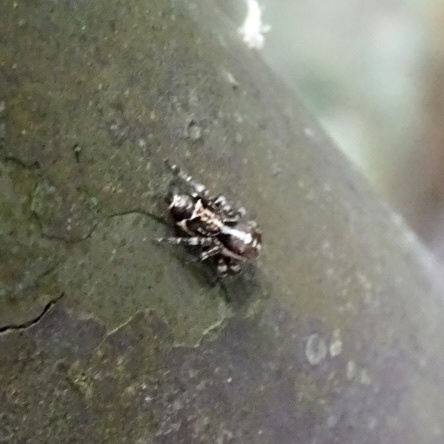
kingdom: Animalia
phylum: Arthropoda
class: Arachnida
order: Araneae
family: Salticidae
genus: Thyene
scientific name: Thyene orientalis
